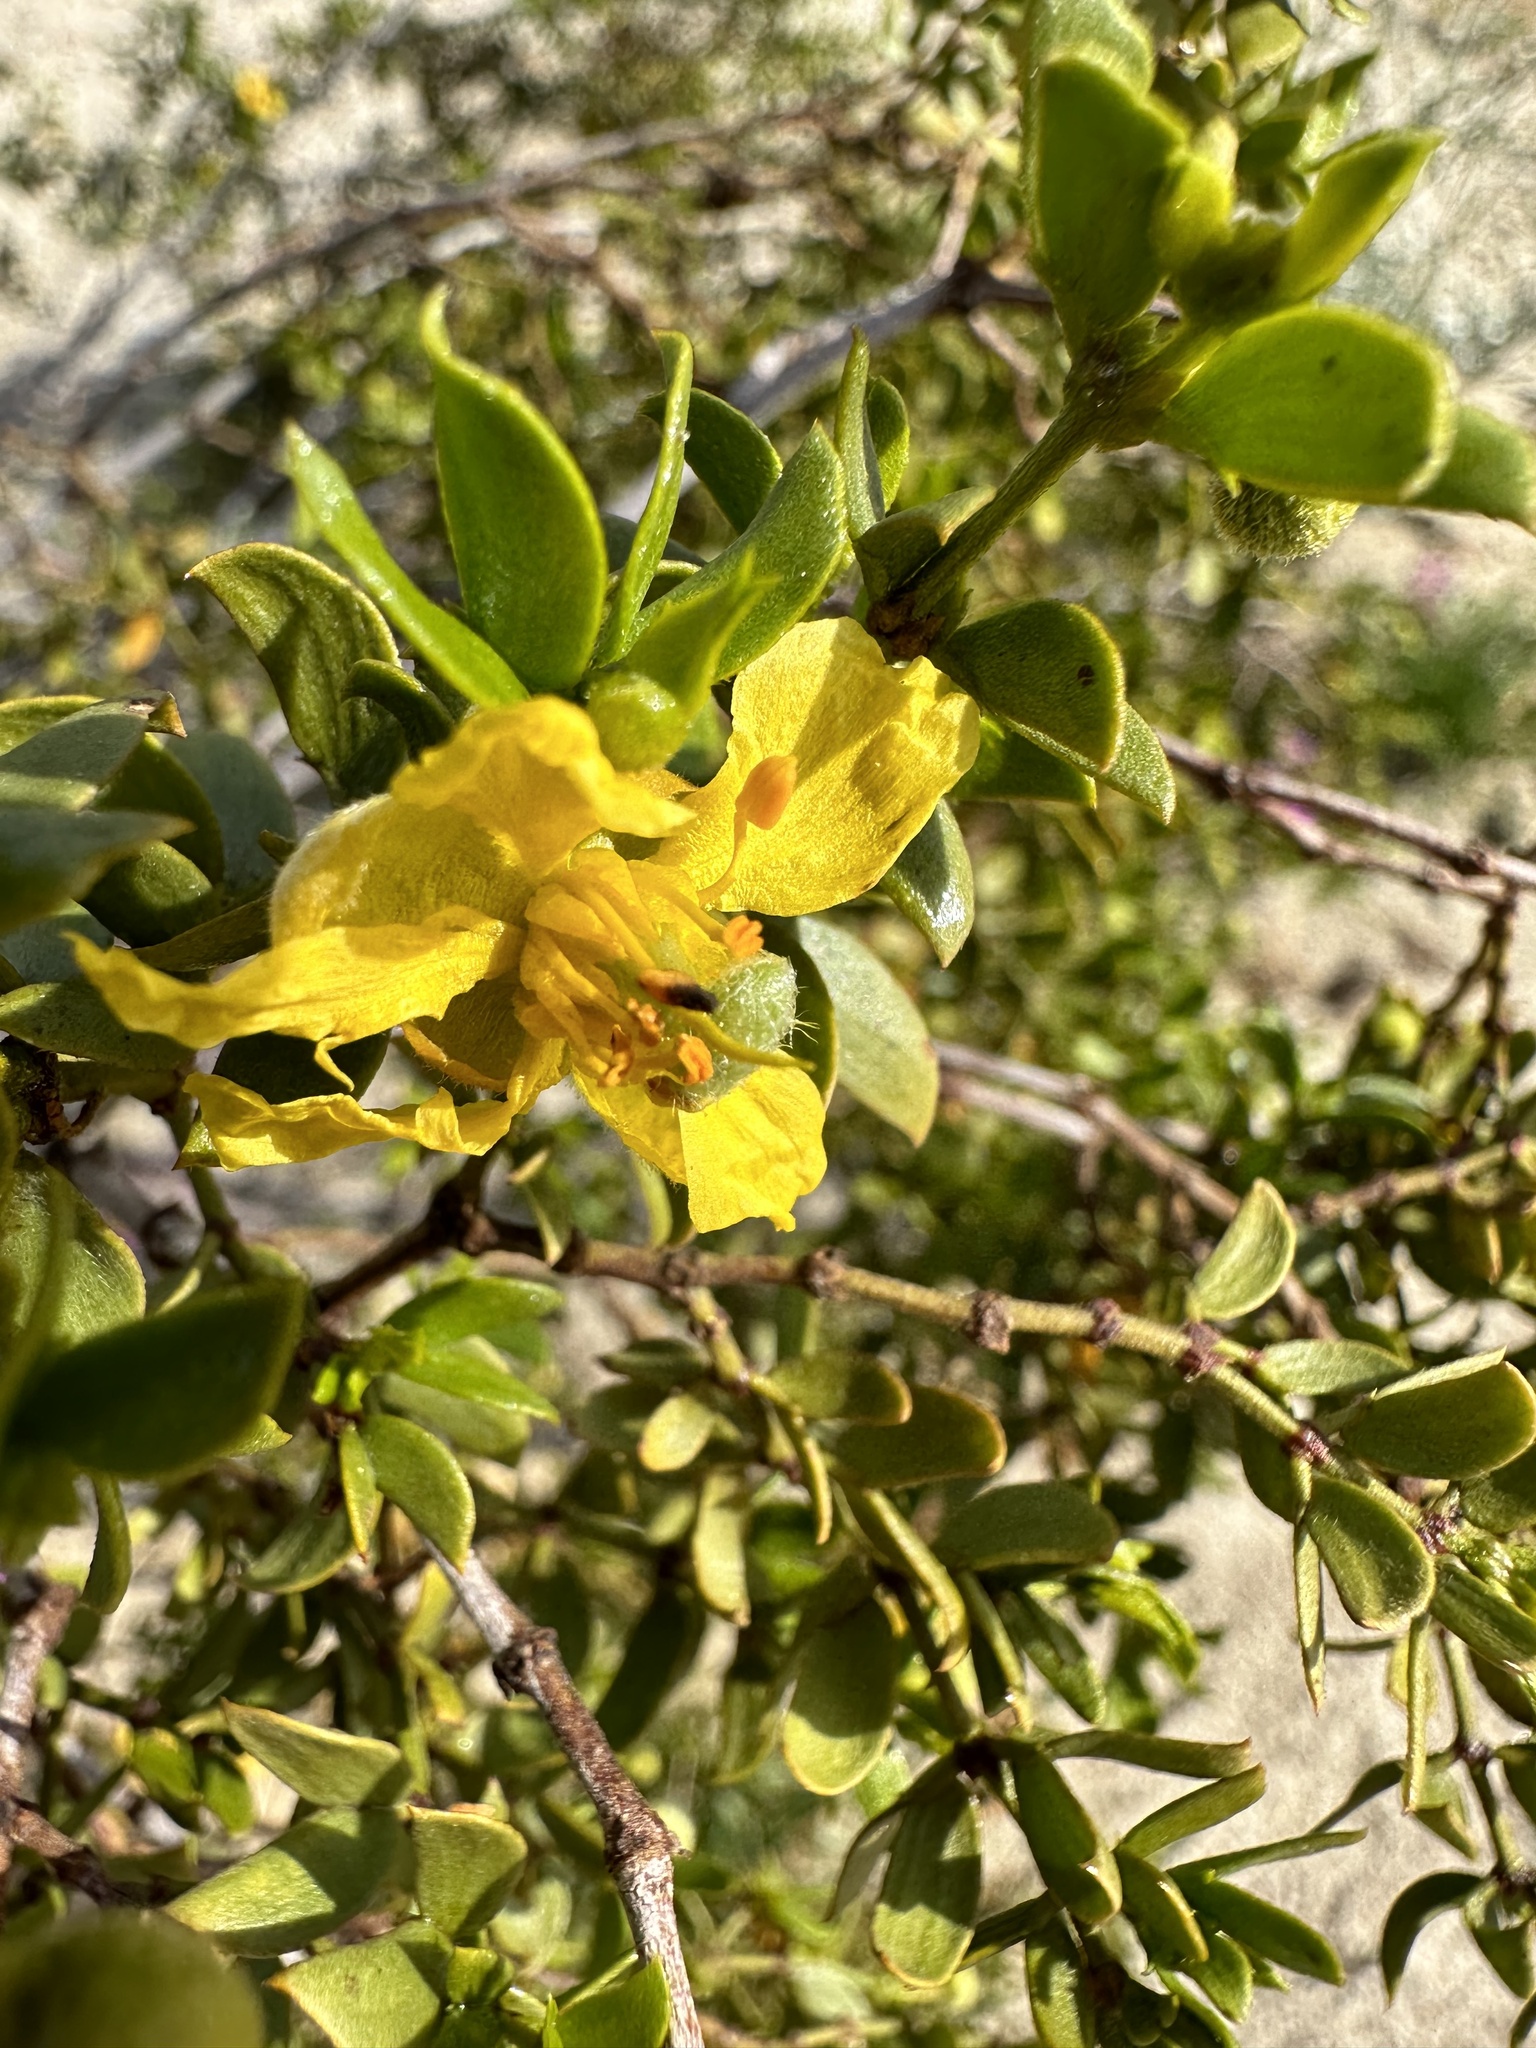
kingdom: Plantae
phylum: Tracheophyta
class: Magnoliopsida
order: Zygophyllales
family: Zygophyllaceae
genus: Larrea
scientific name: Larrea tridentata
